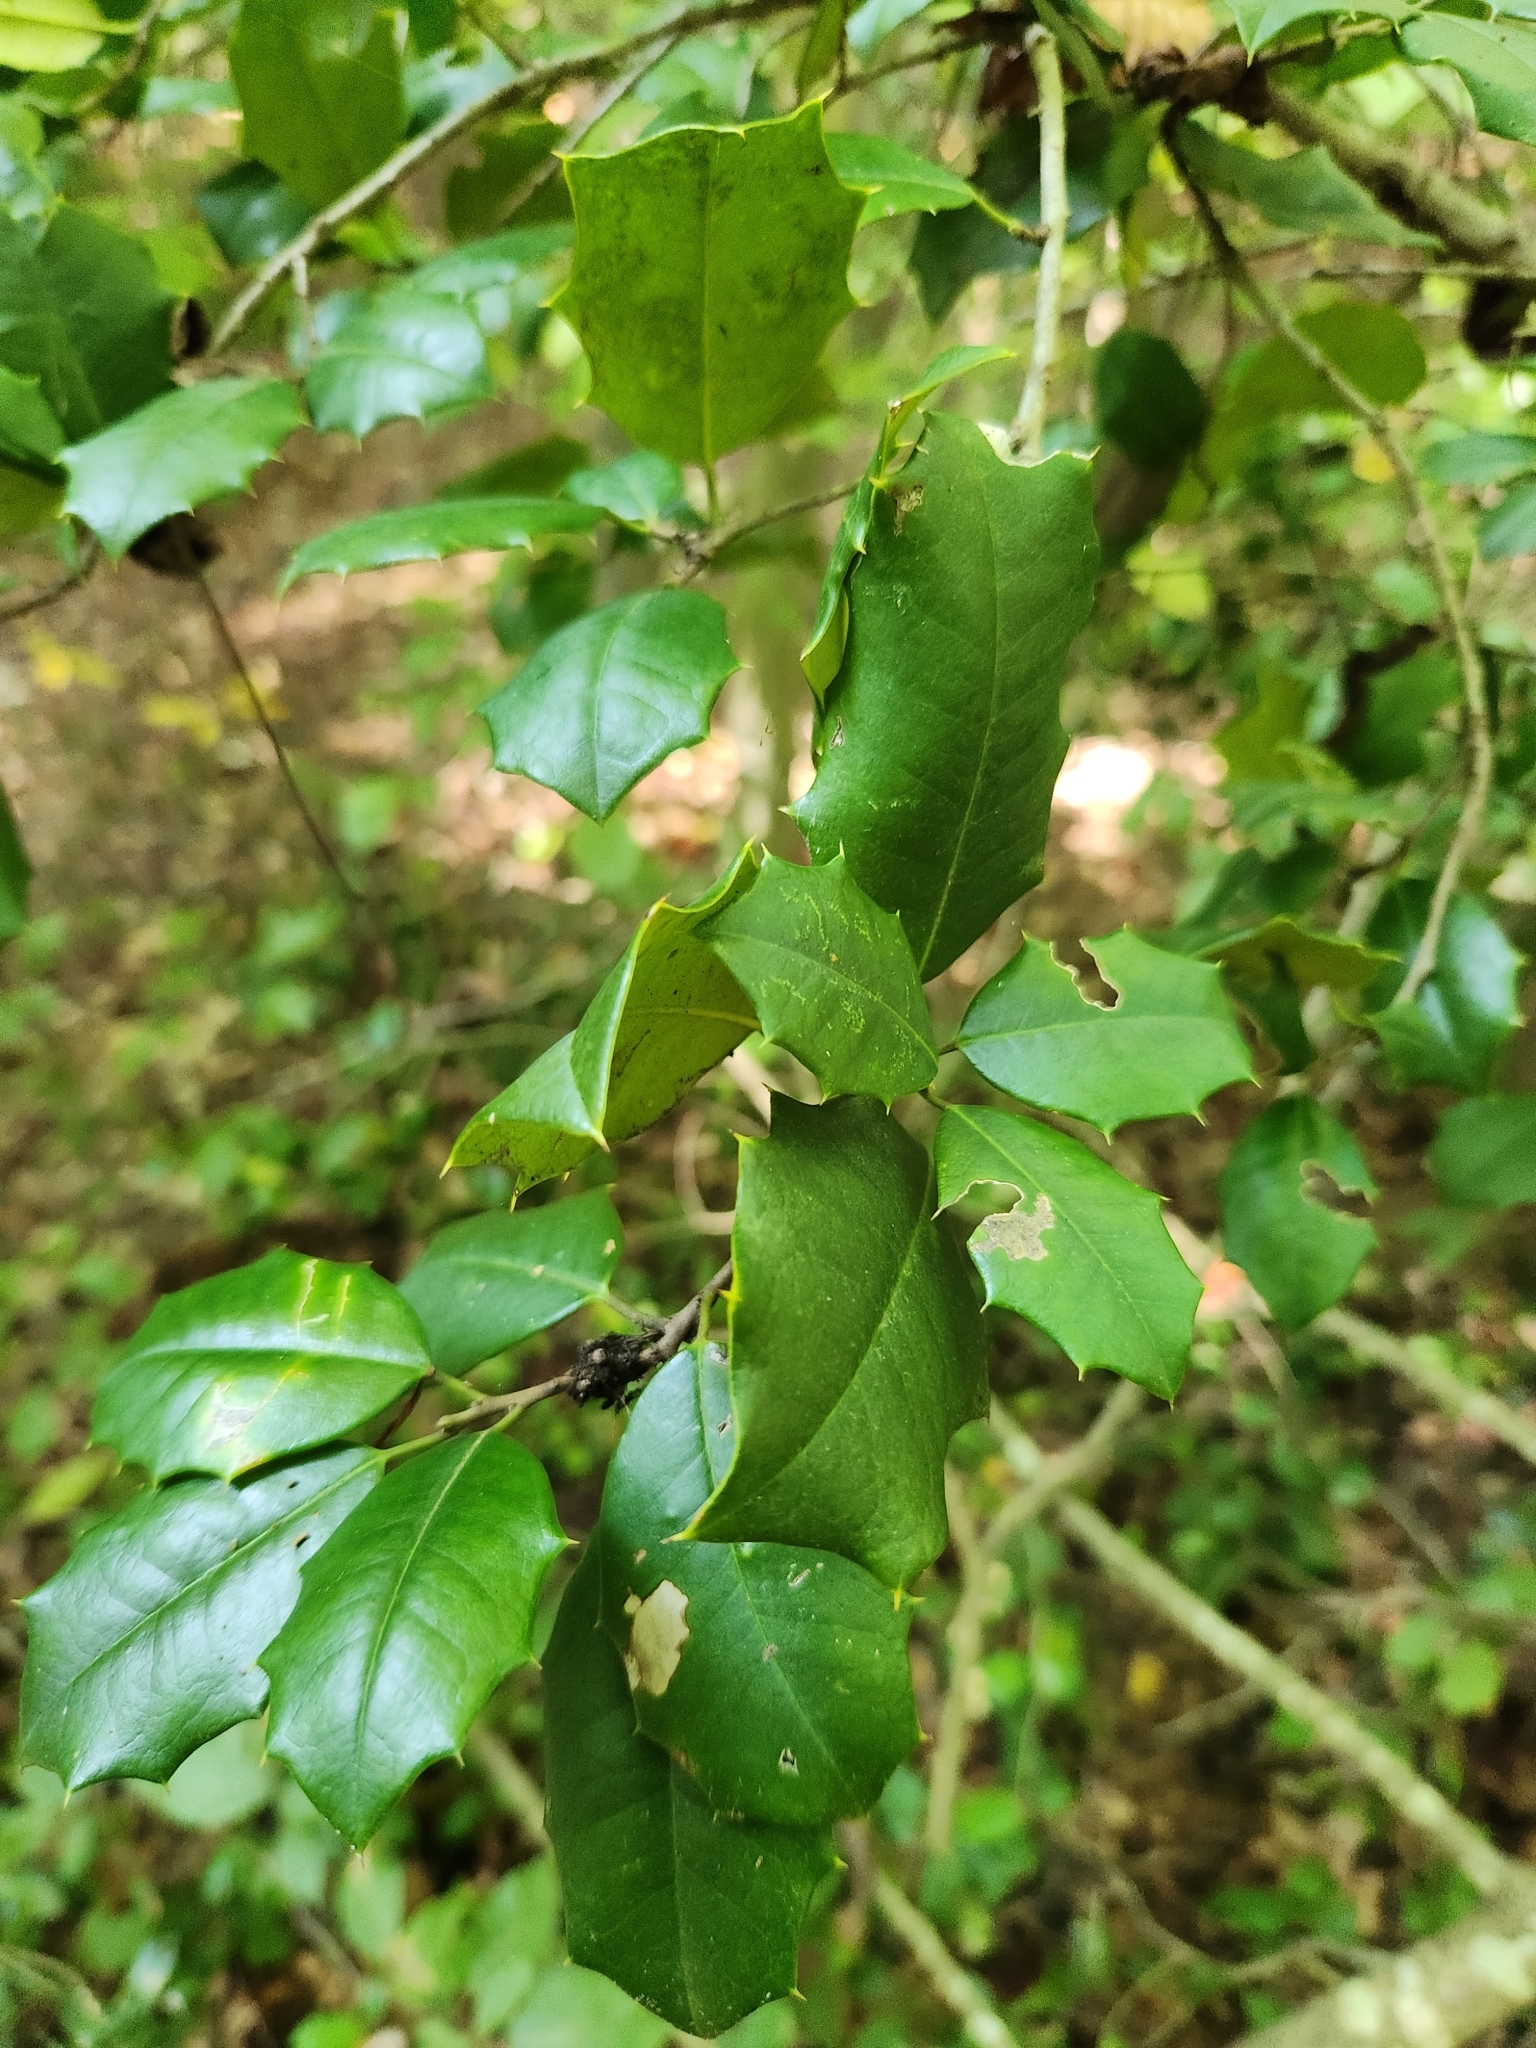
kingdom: Plantae
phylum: Tracheophyta
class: Magnoliopsida
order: Aquifoliales
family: Aquifoliaceae
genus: Ilex
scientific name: Ilex opaca
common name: American holly
